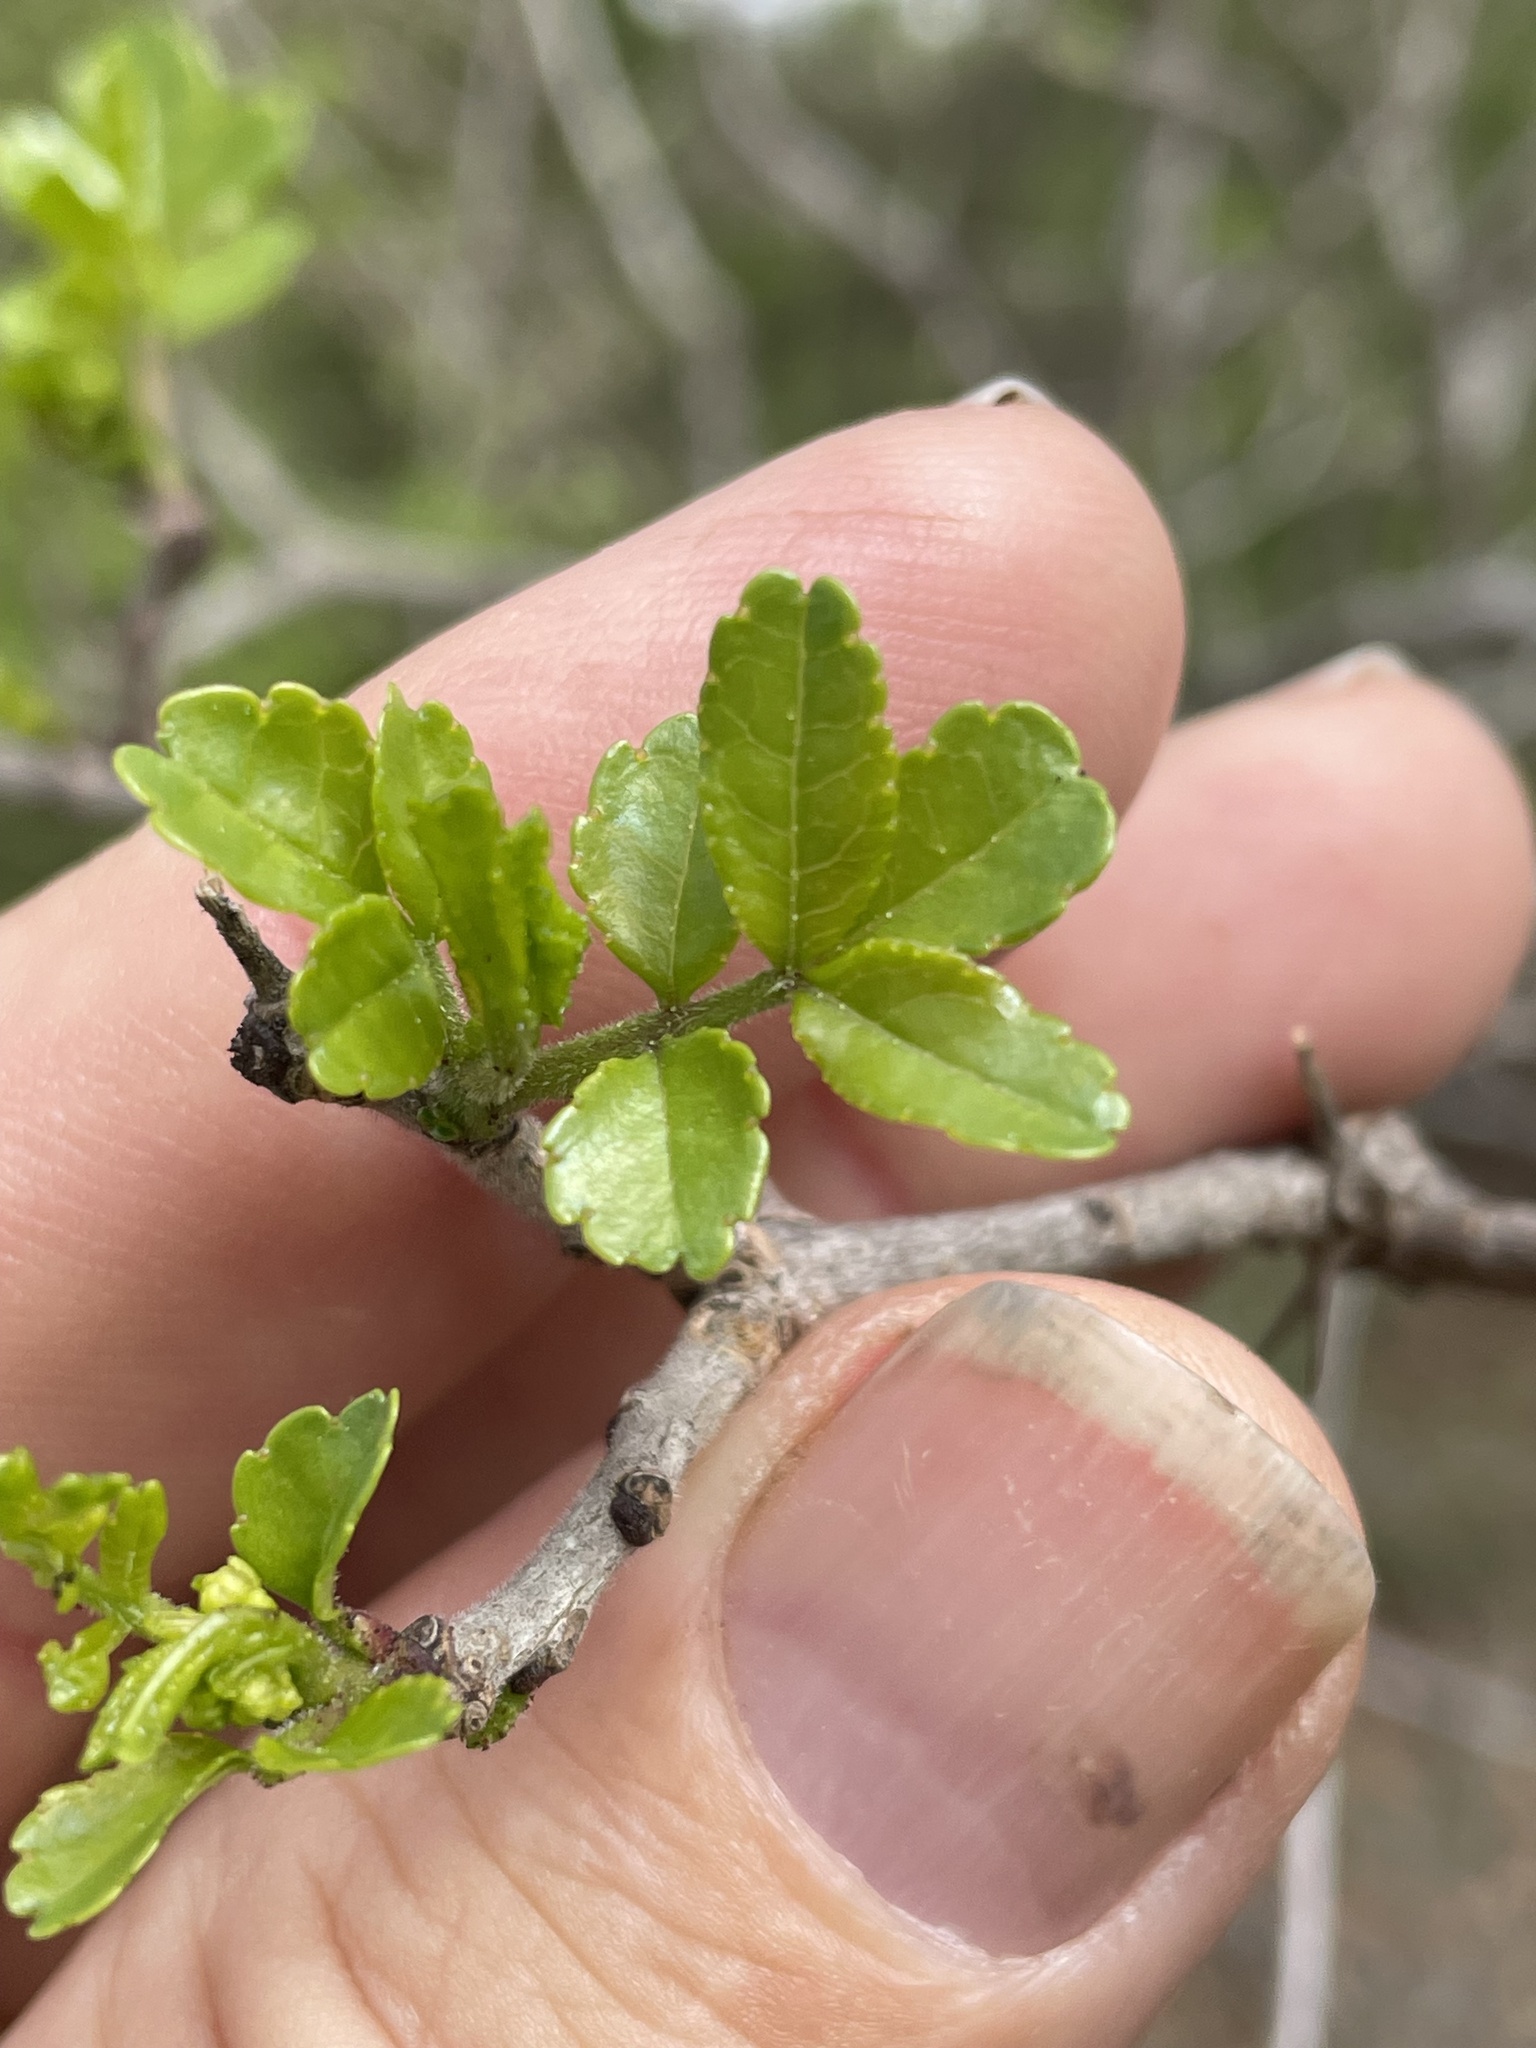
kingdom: Plantae
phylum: Tracheophyta
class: Magnoliopsida
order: Sapindales
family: Rutaceae
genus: Zanthoxylum
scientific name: Zanthoxylum clava-herculis
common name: Hercules'-club
